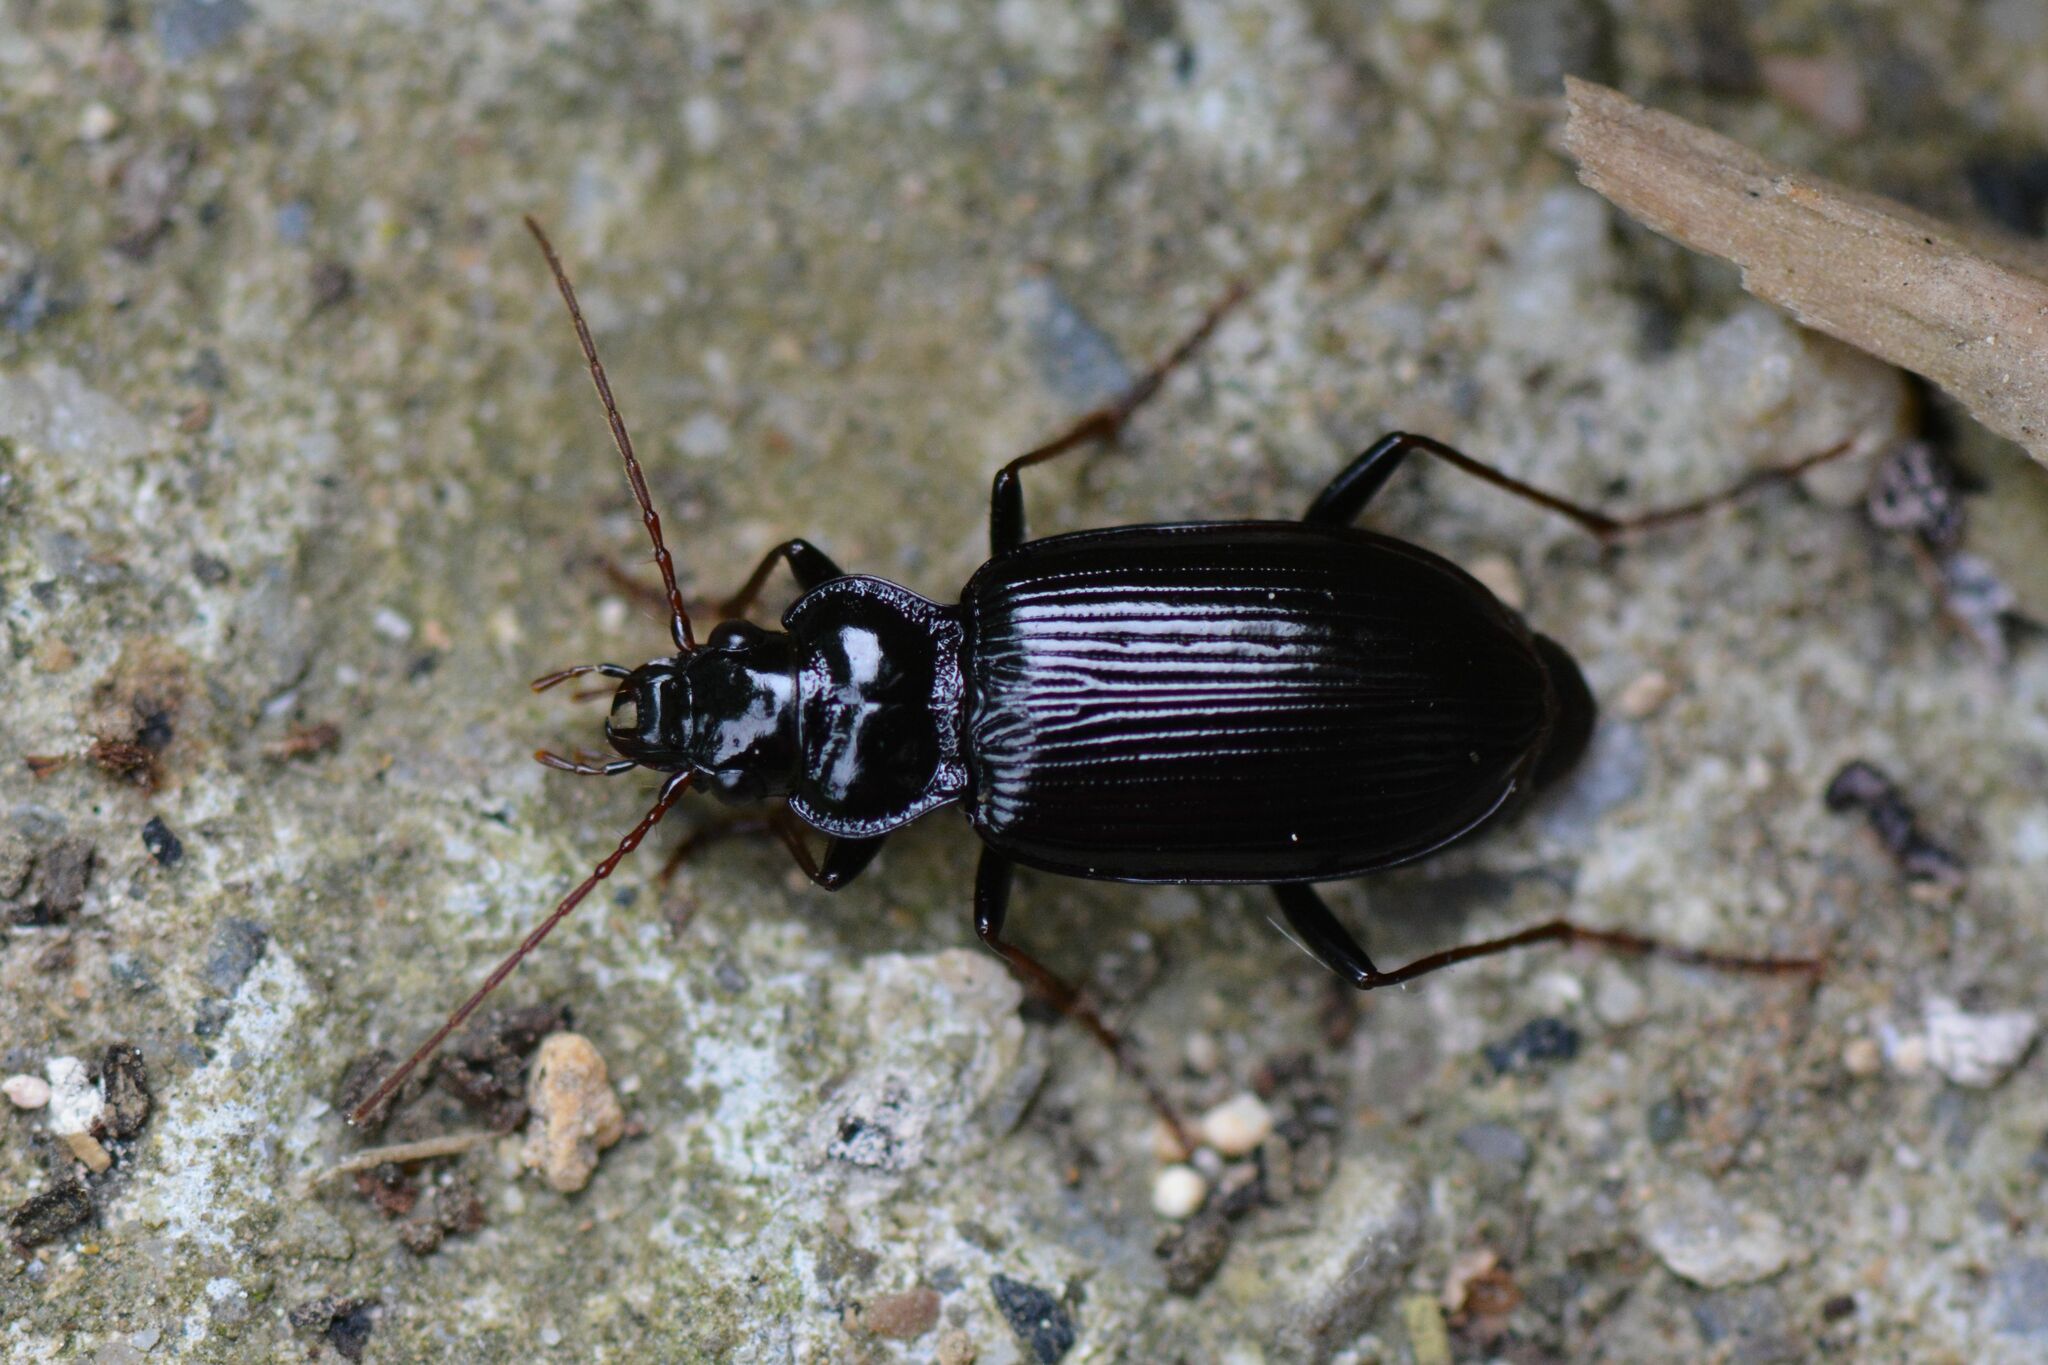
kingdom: Animalia
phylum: Arthropoda
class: Insecta
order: Coleoptera
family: Carabidae
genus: Nebria
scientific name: Nebria salina
